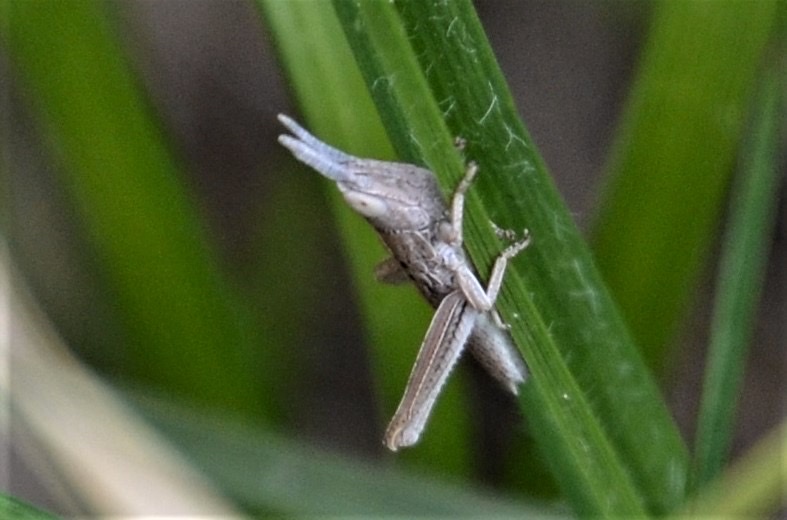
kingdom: Animalia
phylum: Arthropoda
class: Insecta
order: Orthoptera
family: Acrididae
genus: Euthystira
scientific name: Euthystira brachyptera
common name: Small gold grasshopper
